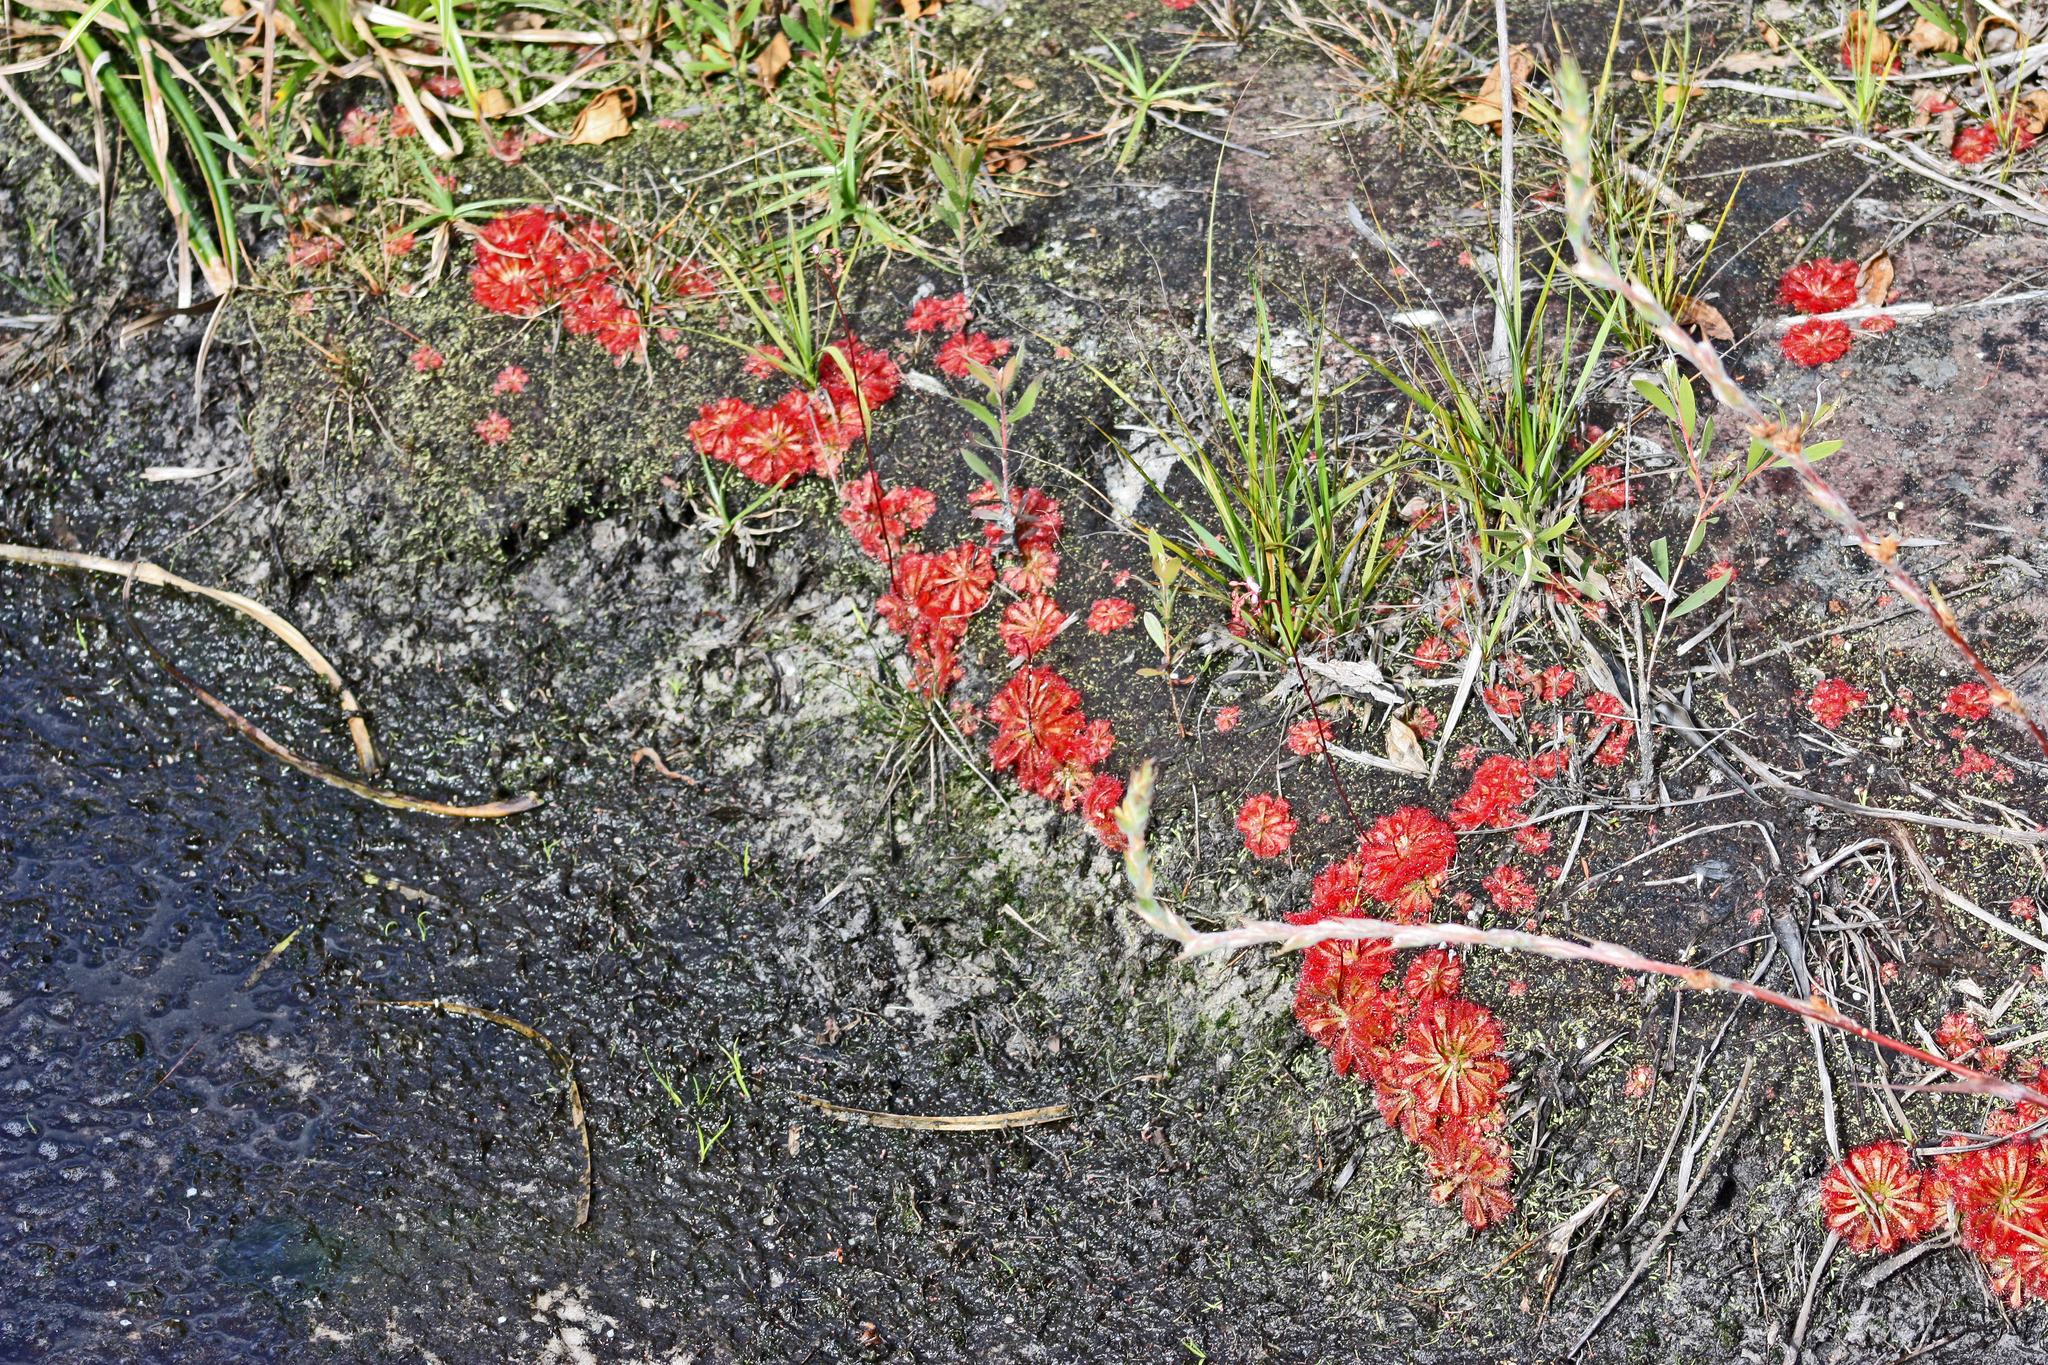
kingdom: Plantae
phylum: Tracheophyta
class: Magnoliopsida
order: Caryophyllales
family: Droseraceae
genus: Drosera
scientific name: Drosera spatulata
